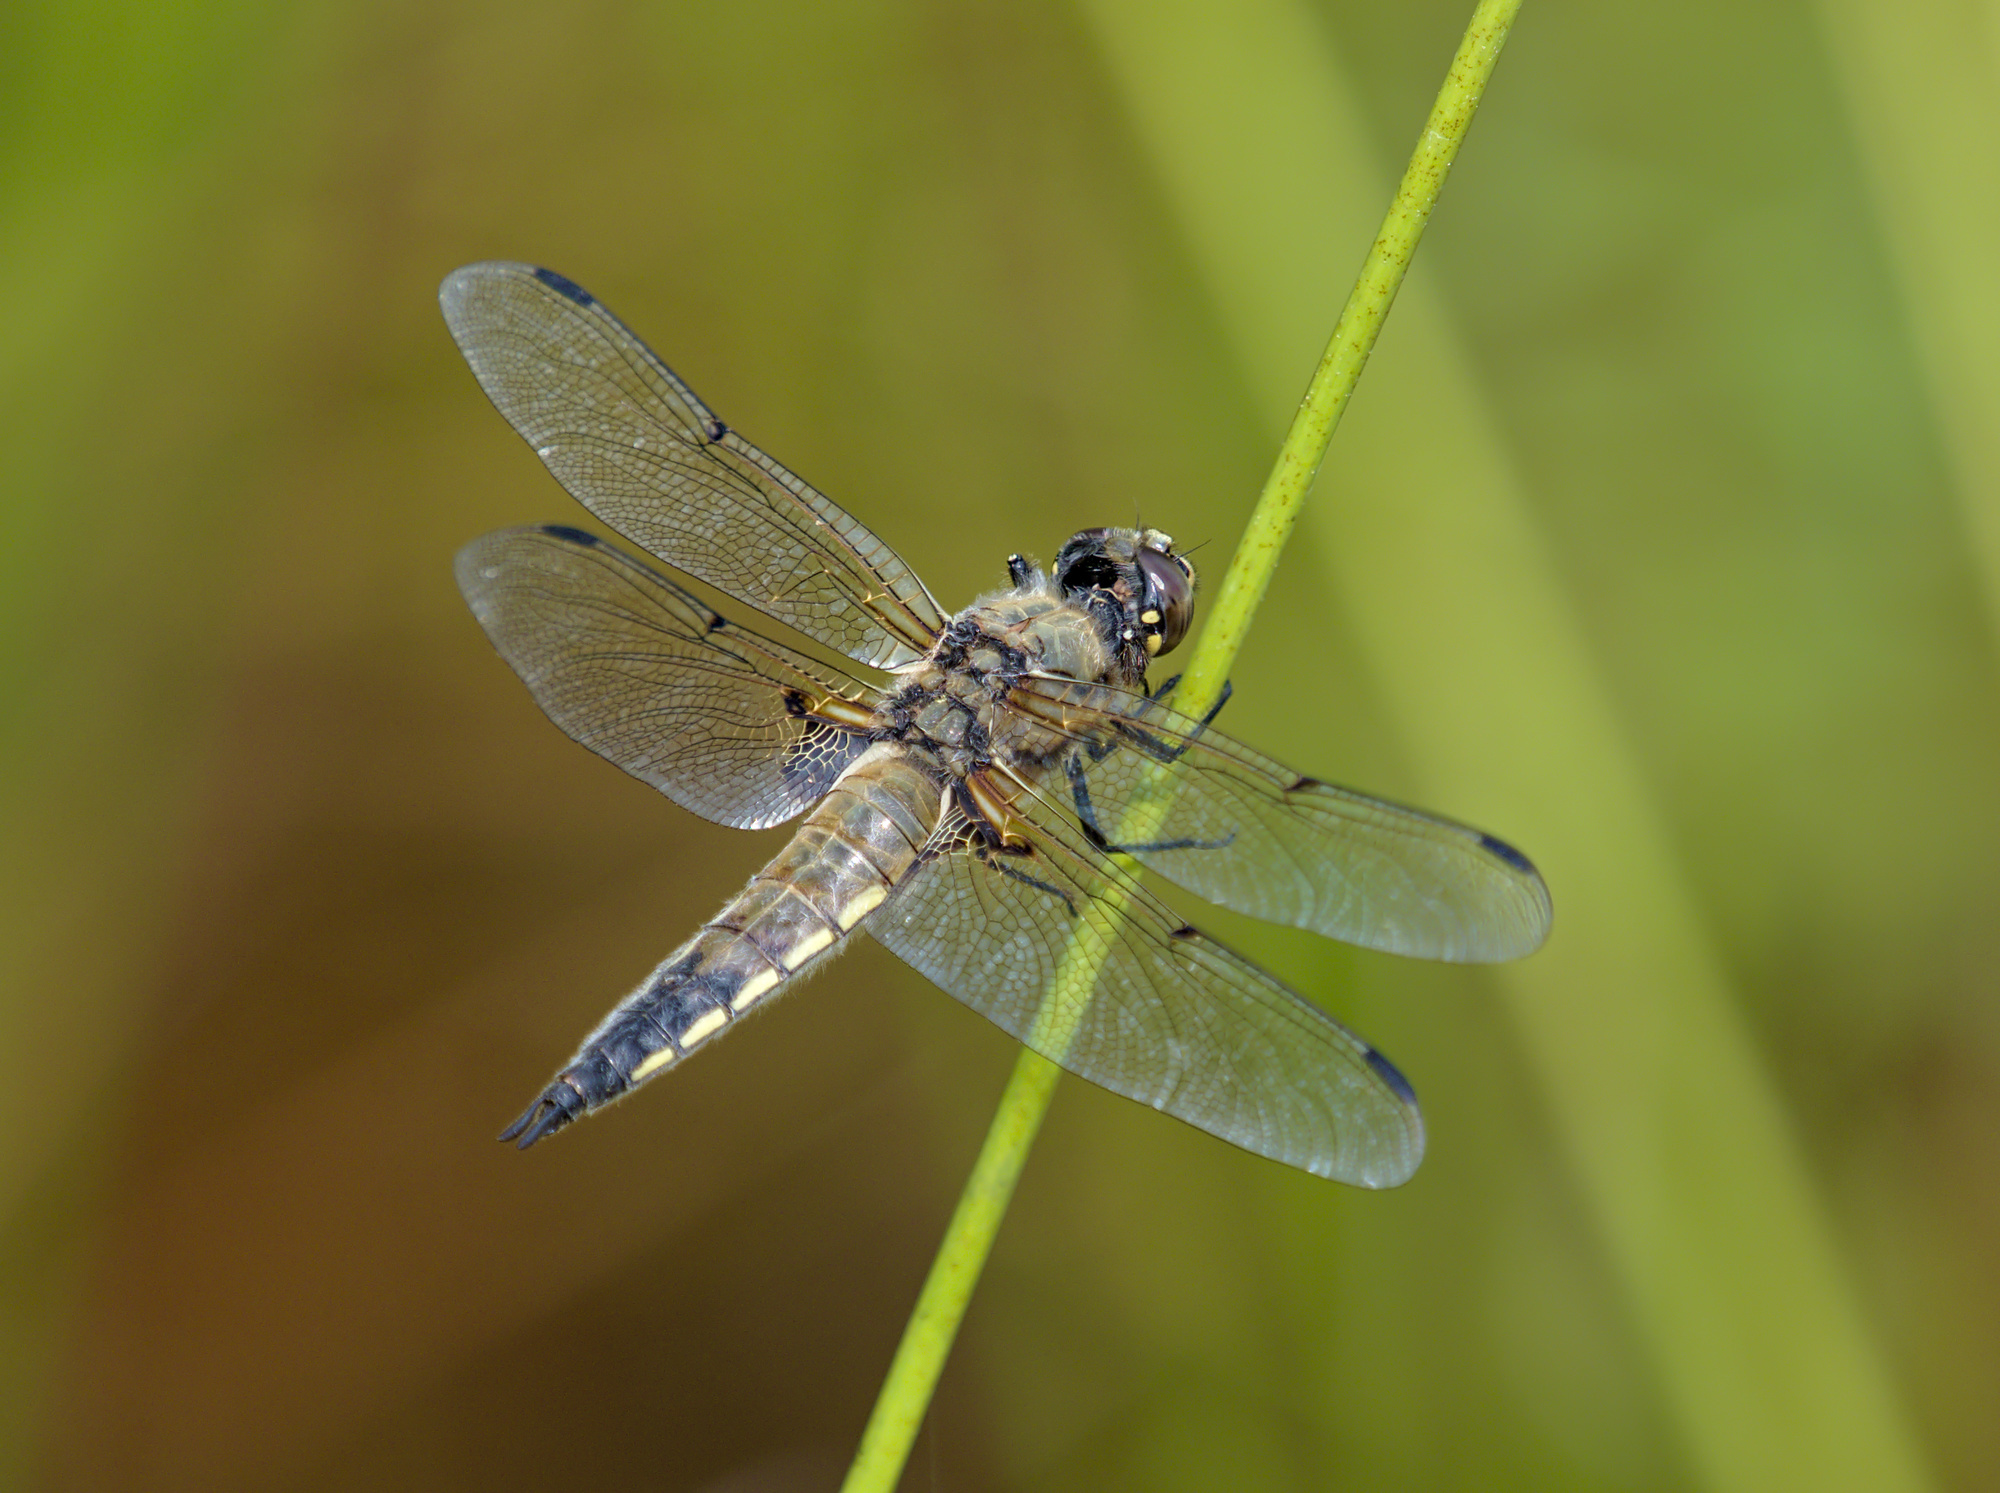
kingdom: Animalia
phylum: Arthropoda
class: Insecta
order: Odonata
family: Libellulidae
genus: Libellula
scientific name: Libellula quadrimaculata
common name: Four-spotted chaser
